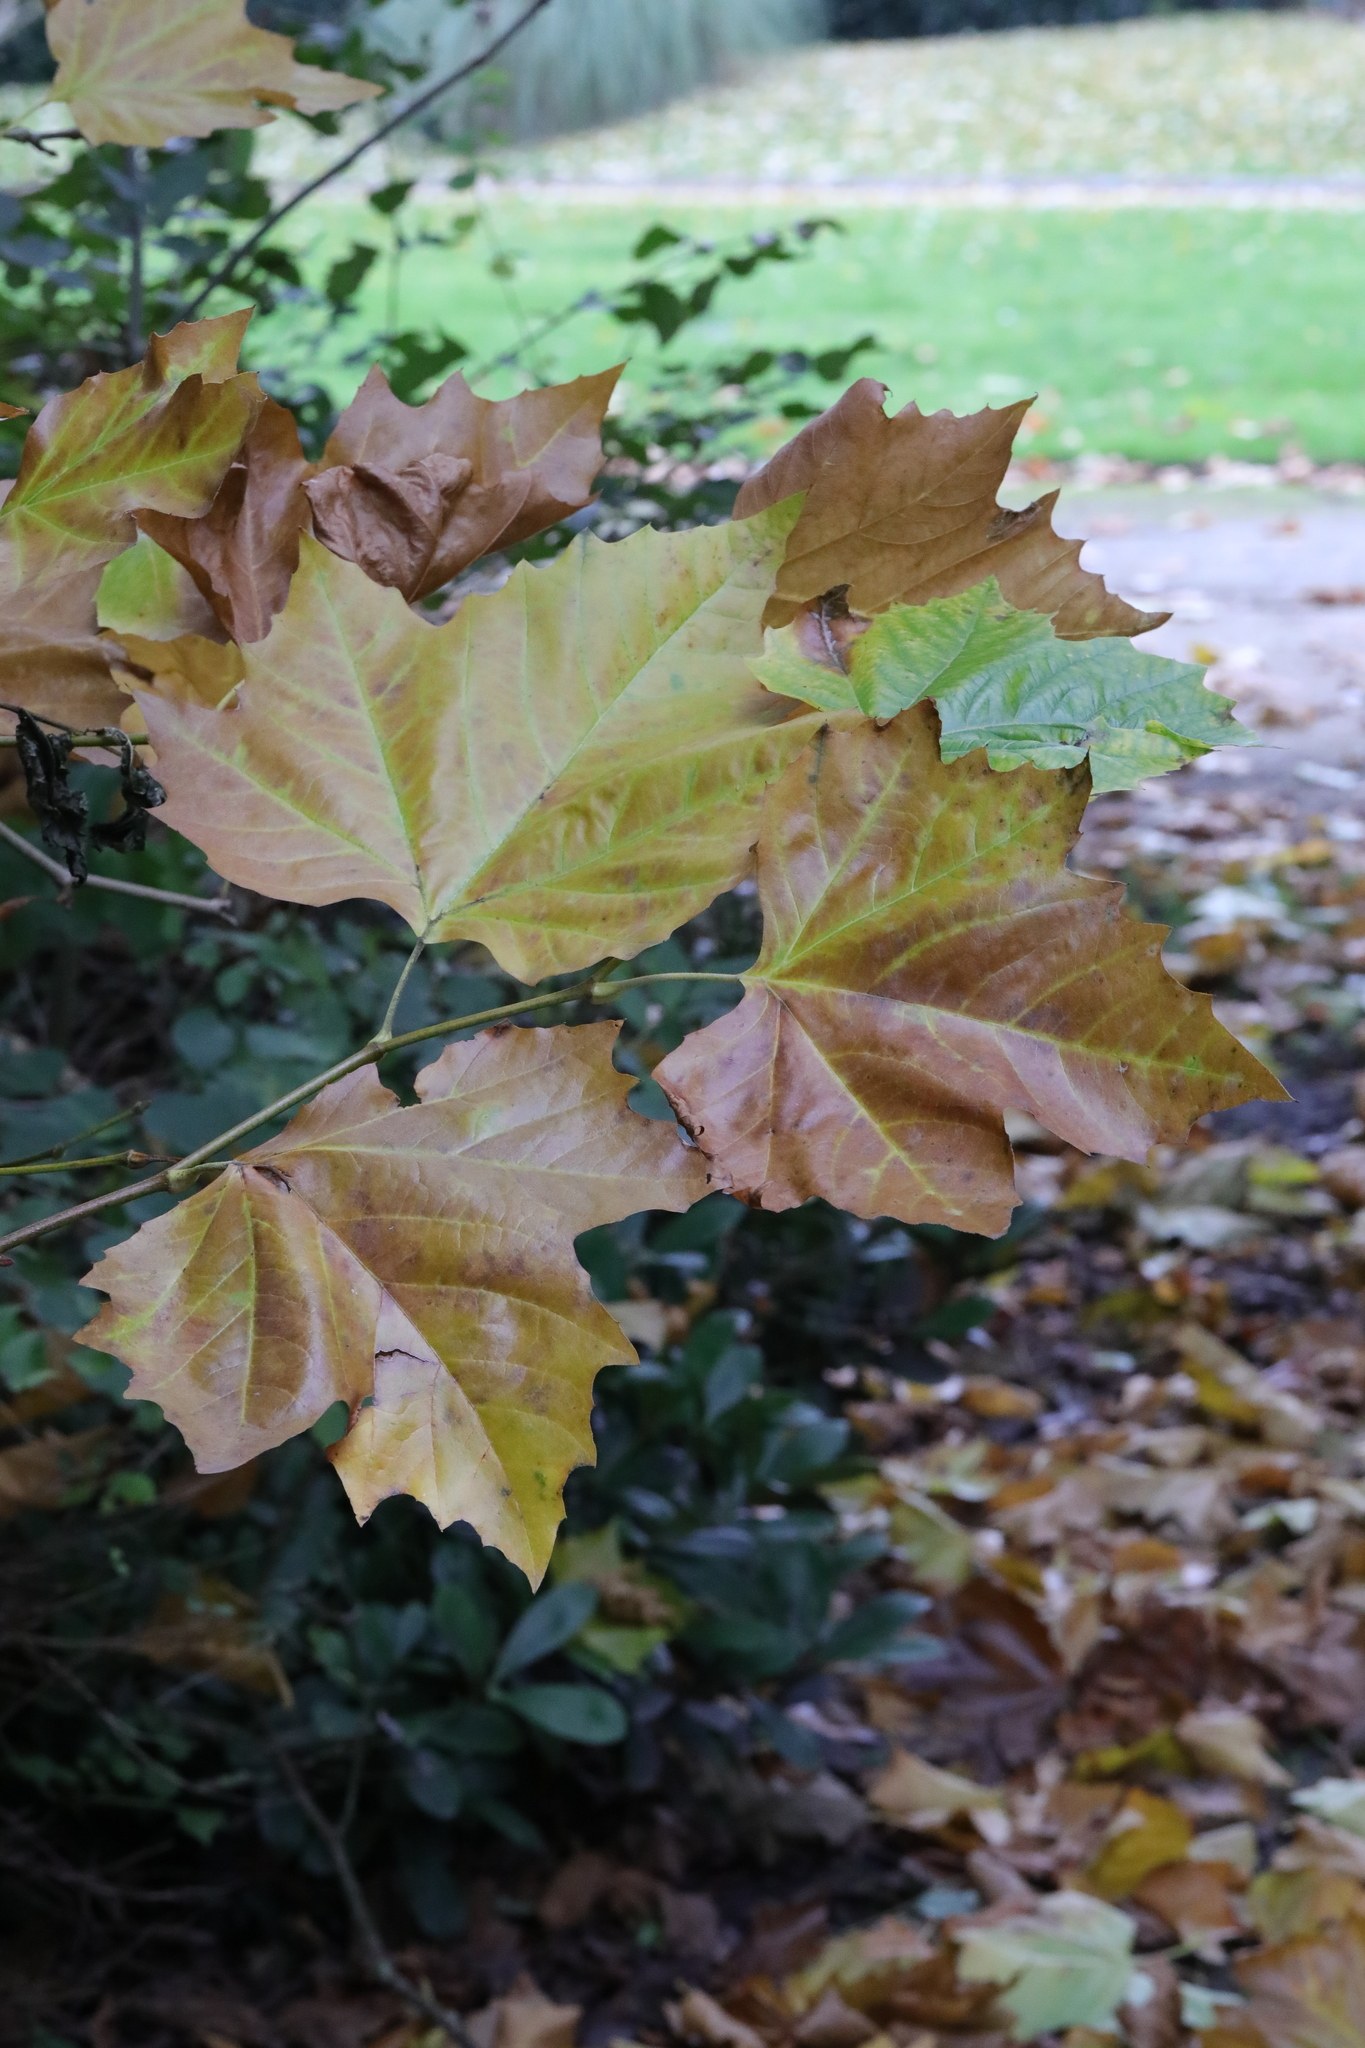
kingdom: Plantae
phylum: Tracheophyta
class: Magnoliopsida
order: Proteales
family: Platanaceae
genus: Platanus
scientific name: Platanus hispanica
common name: London plane
